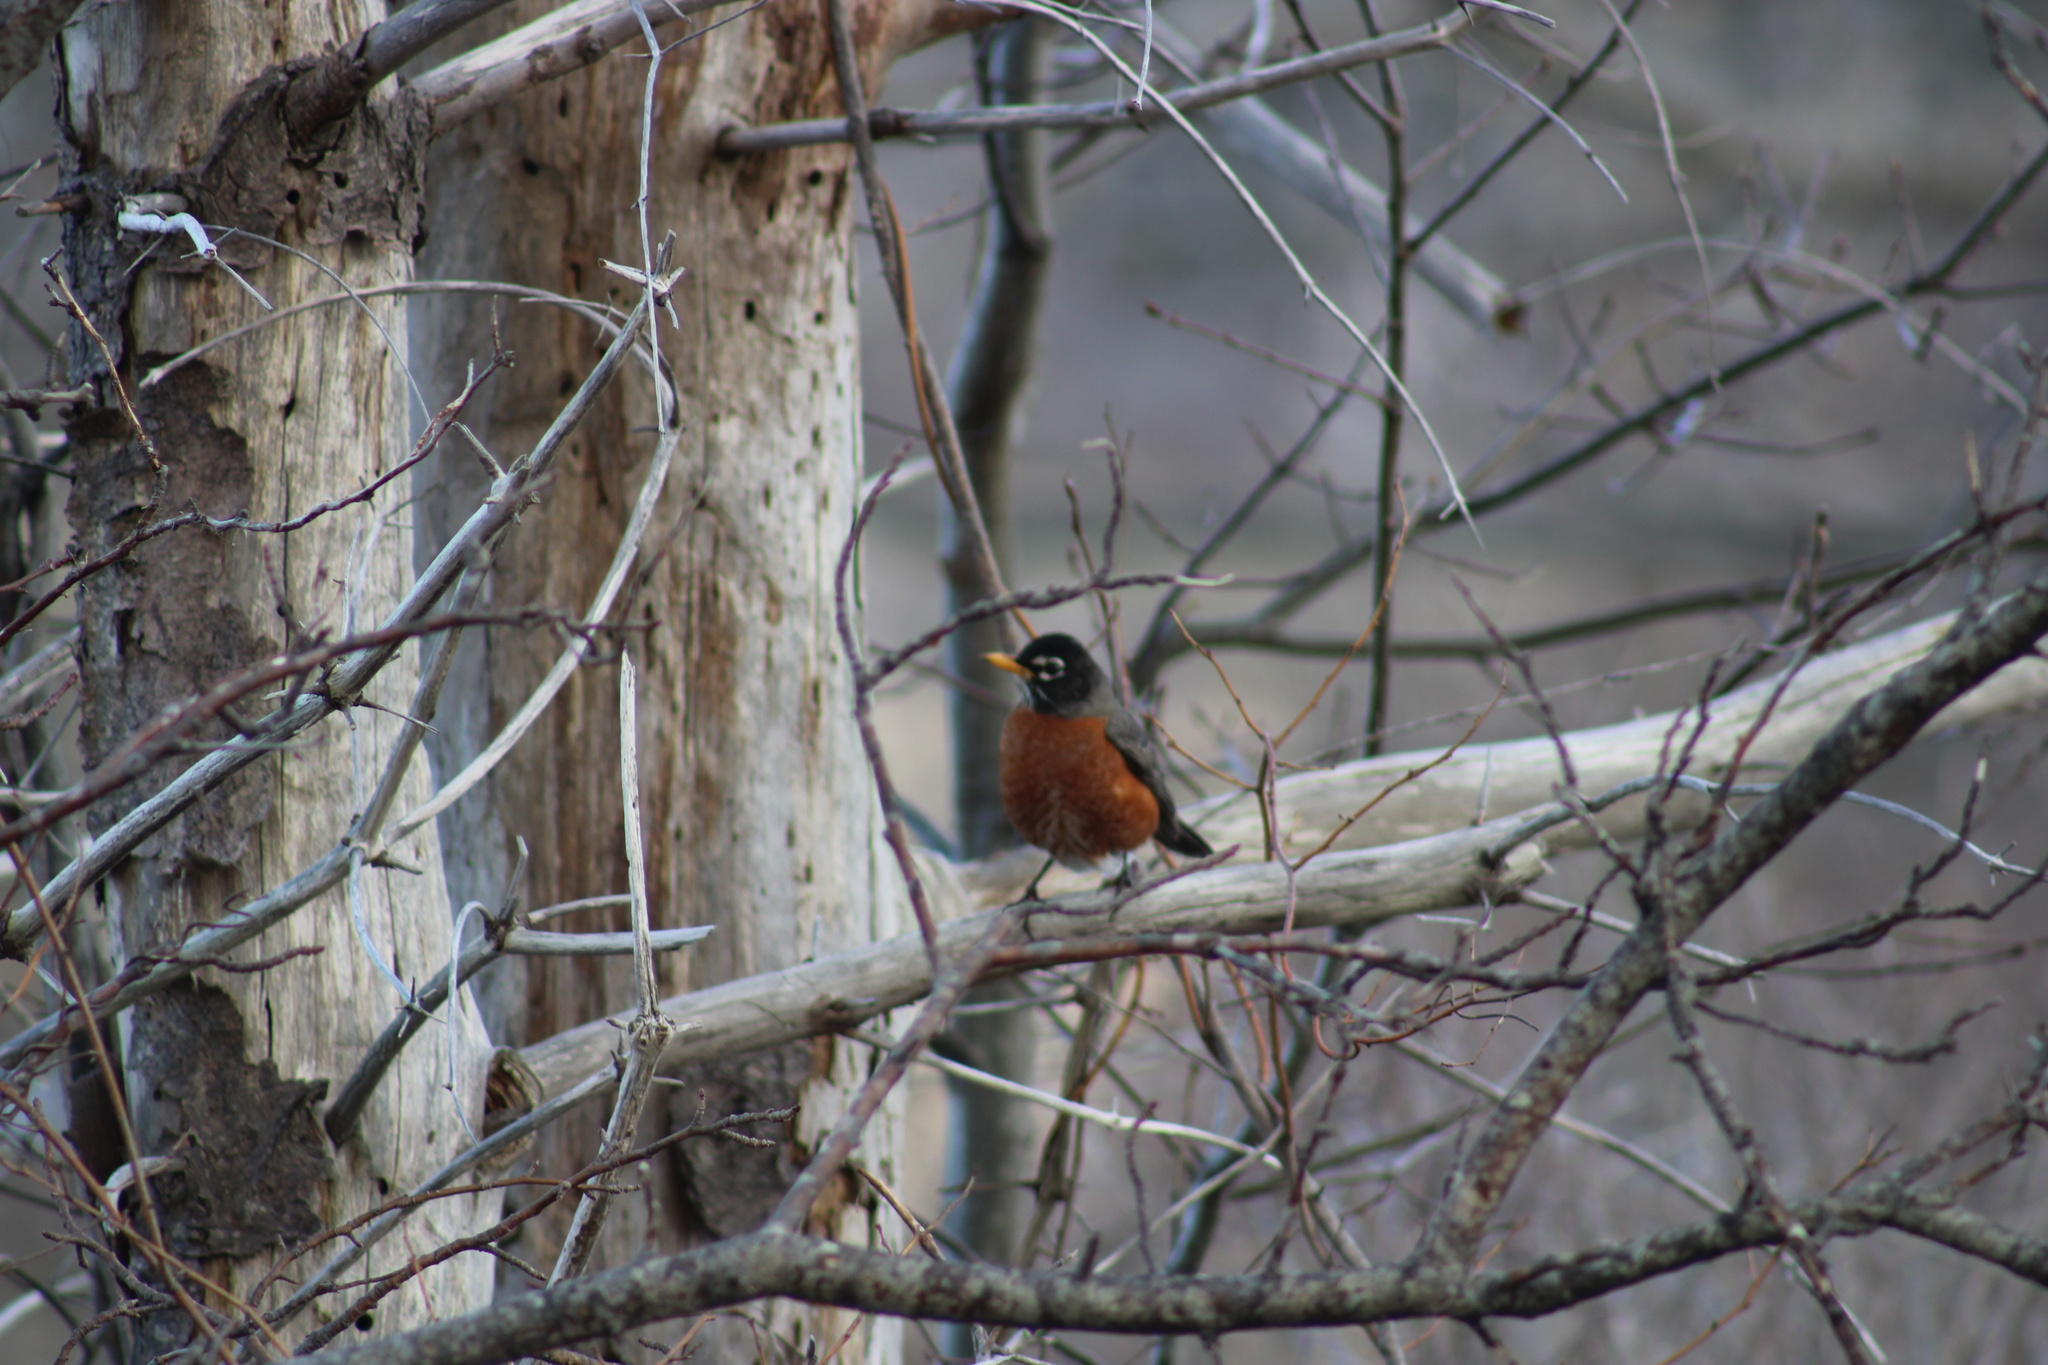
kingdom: Animalia
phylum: Chordata
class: Aves
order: Passeriformes
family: Turdidae
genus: Turdus
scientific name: Turdus migratorius
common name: American robin
